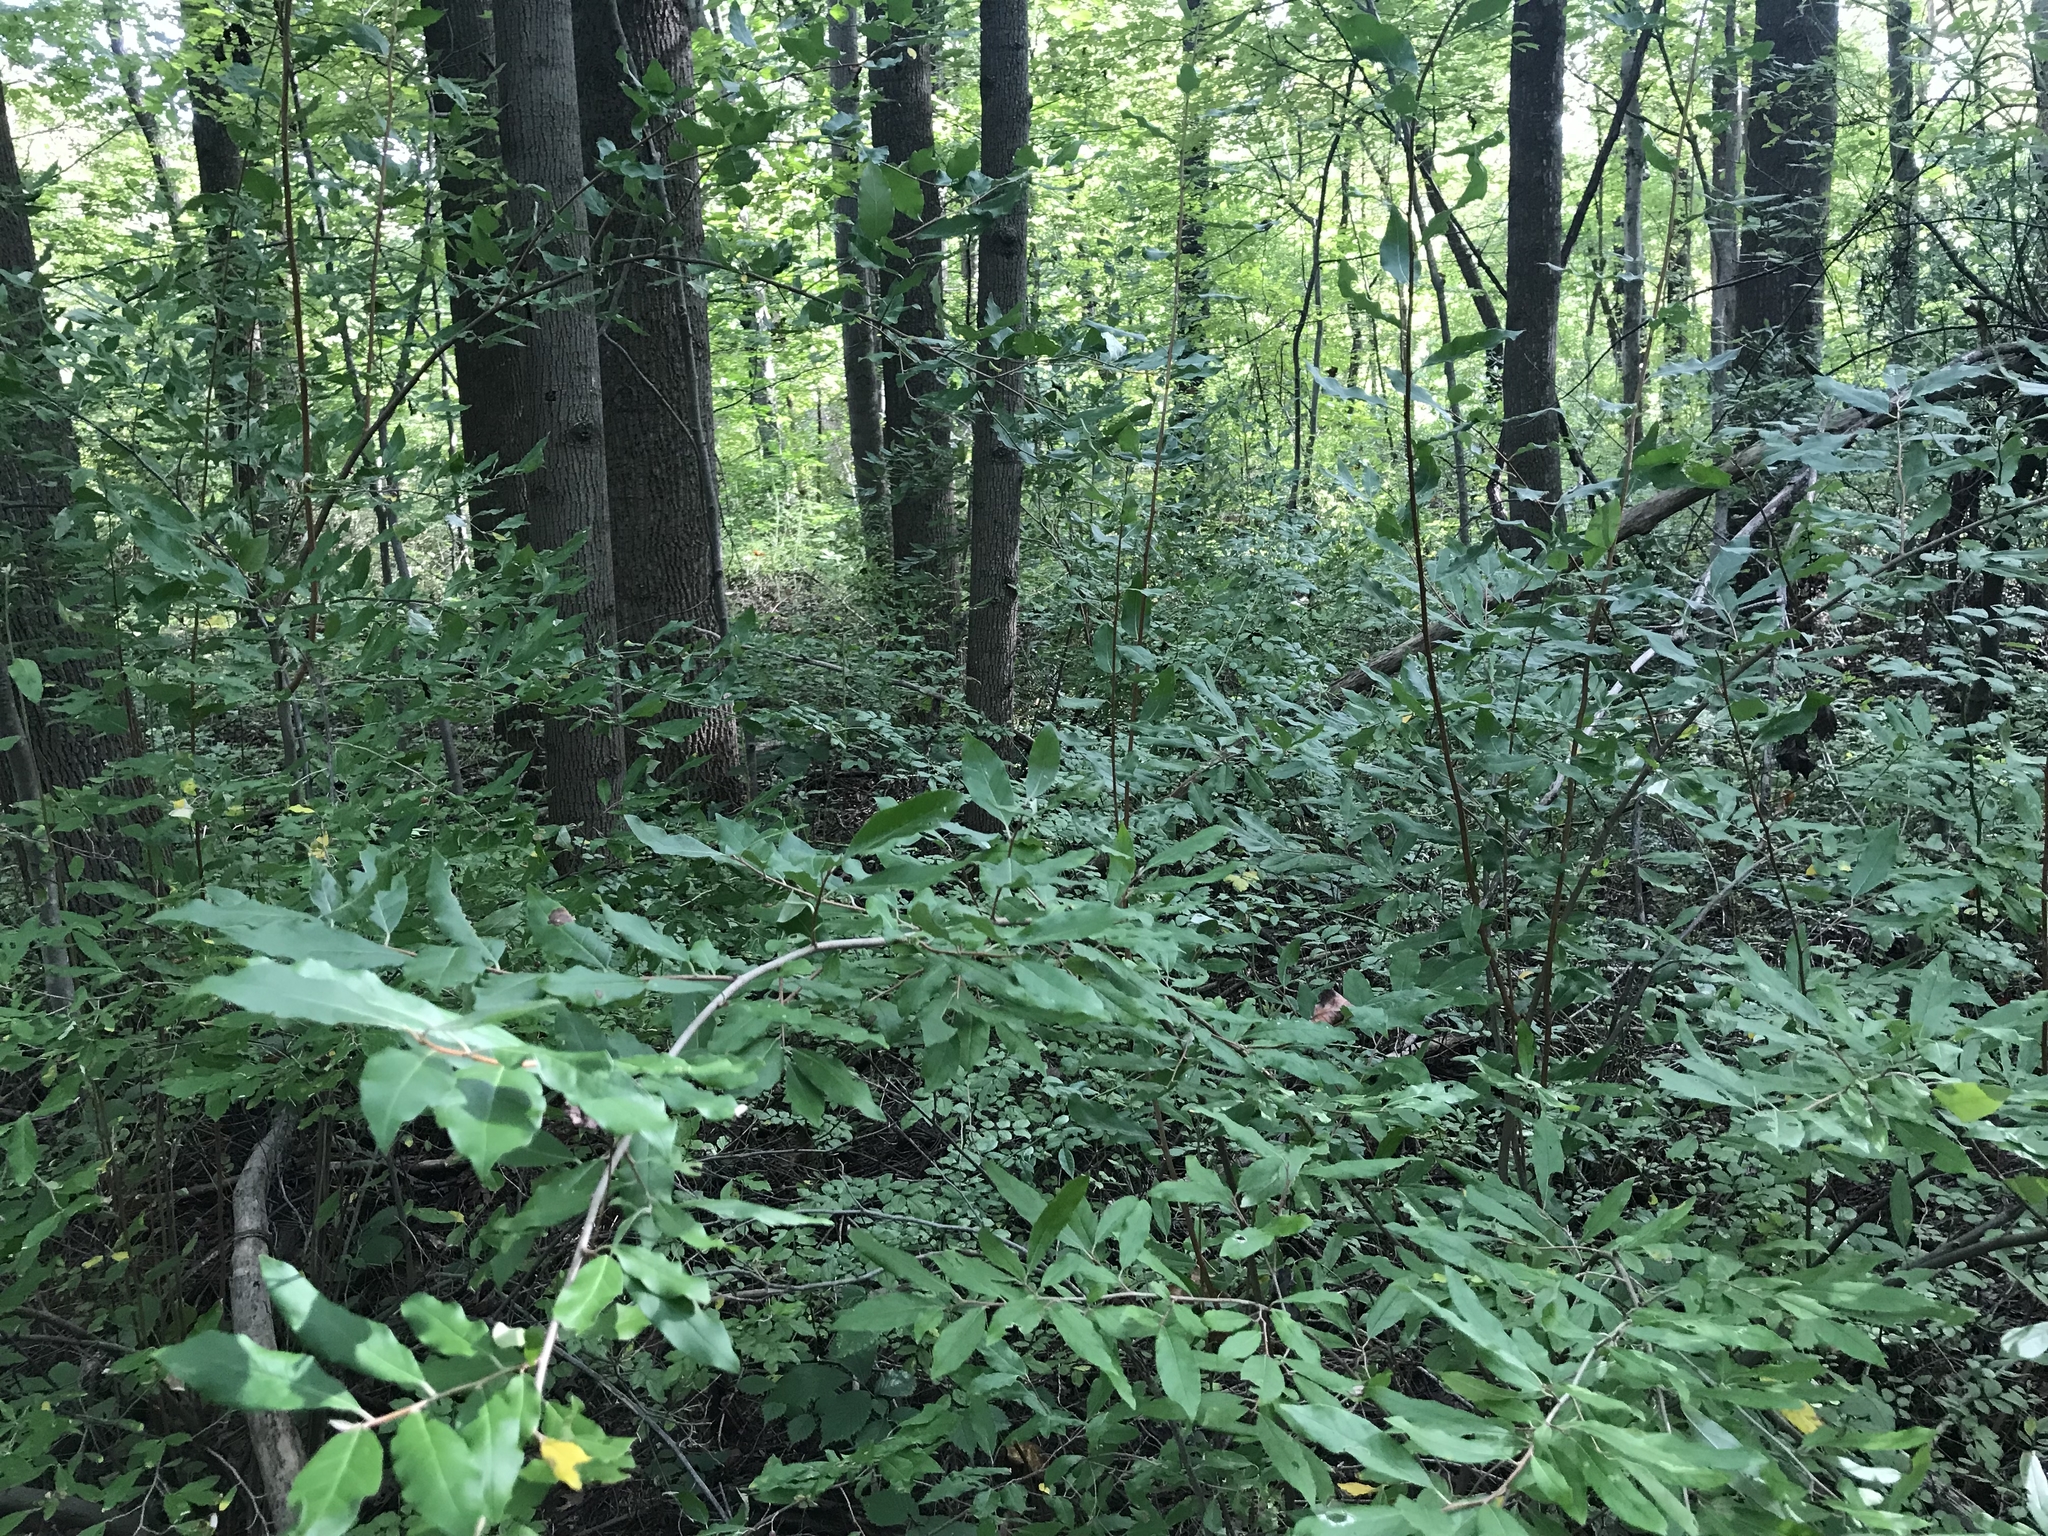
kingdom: Plantae
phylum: Tracheophyta
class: Magnoliopsida
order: Rosales
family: Elaeagnaceae
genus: Elaeagnus
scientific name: Elaeagnus umbellata
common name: Autumn olive
